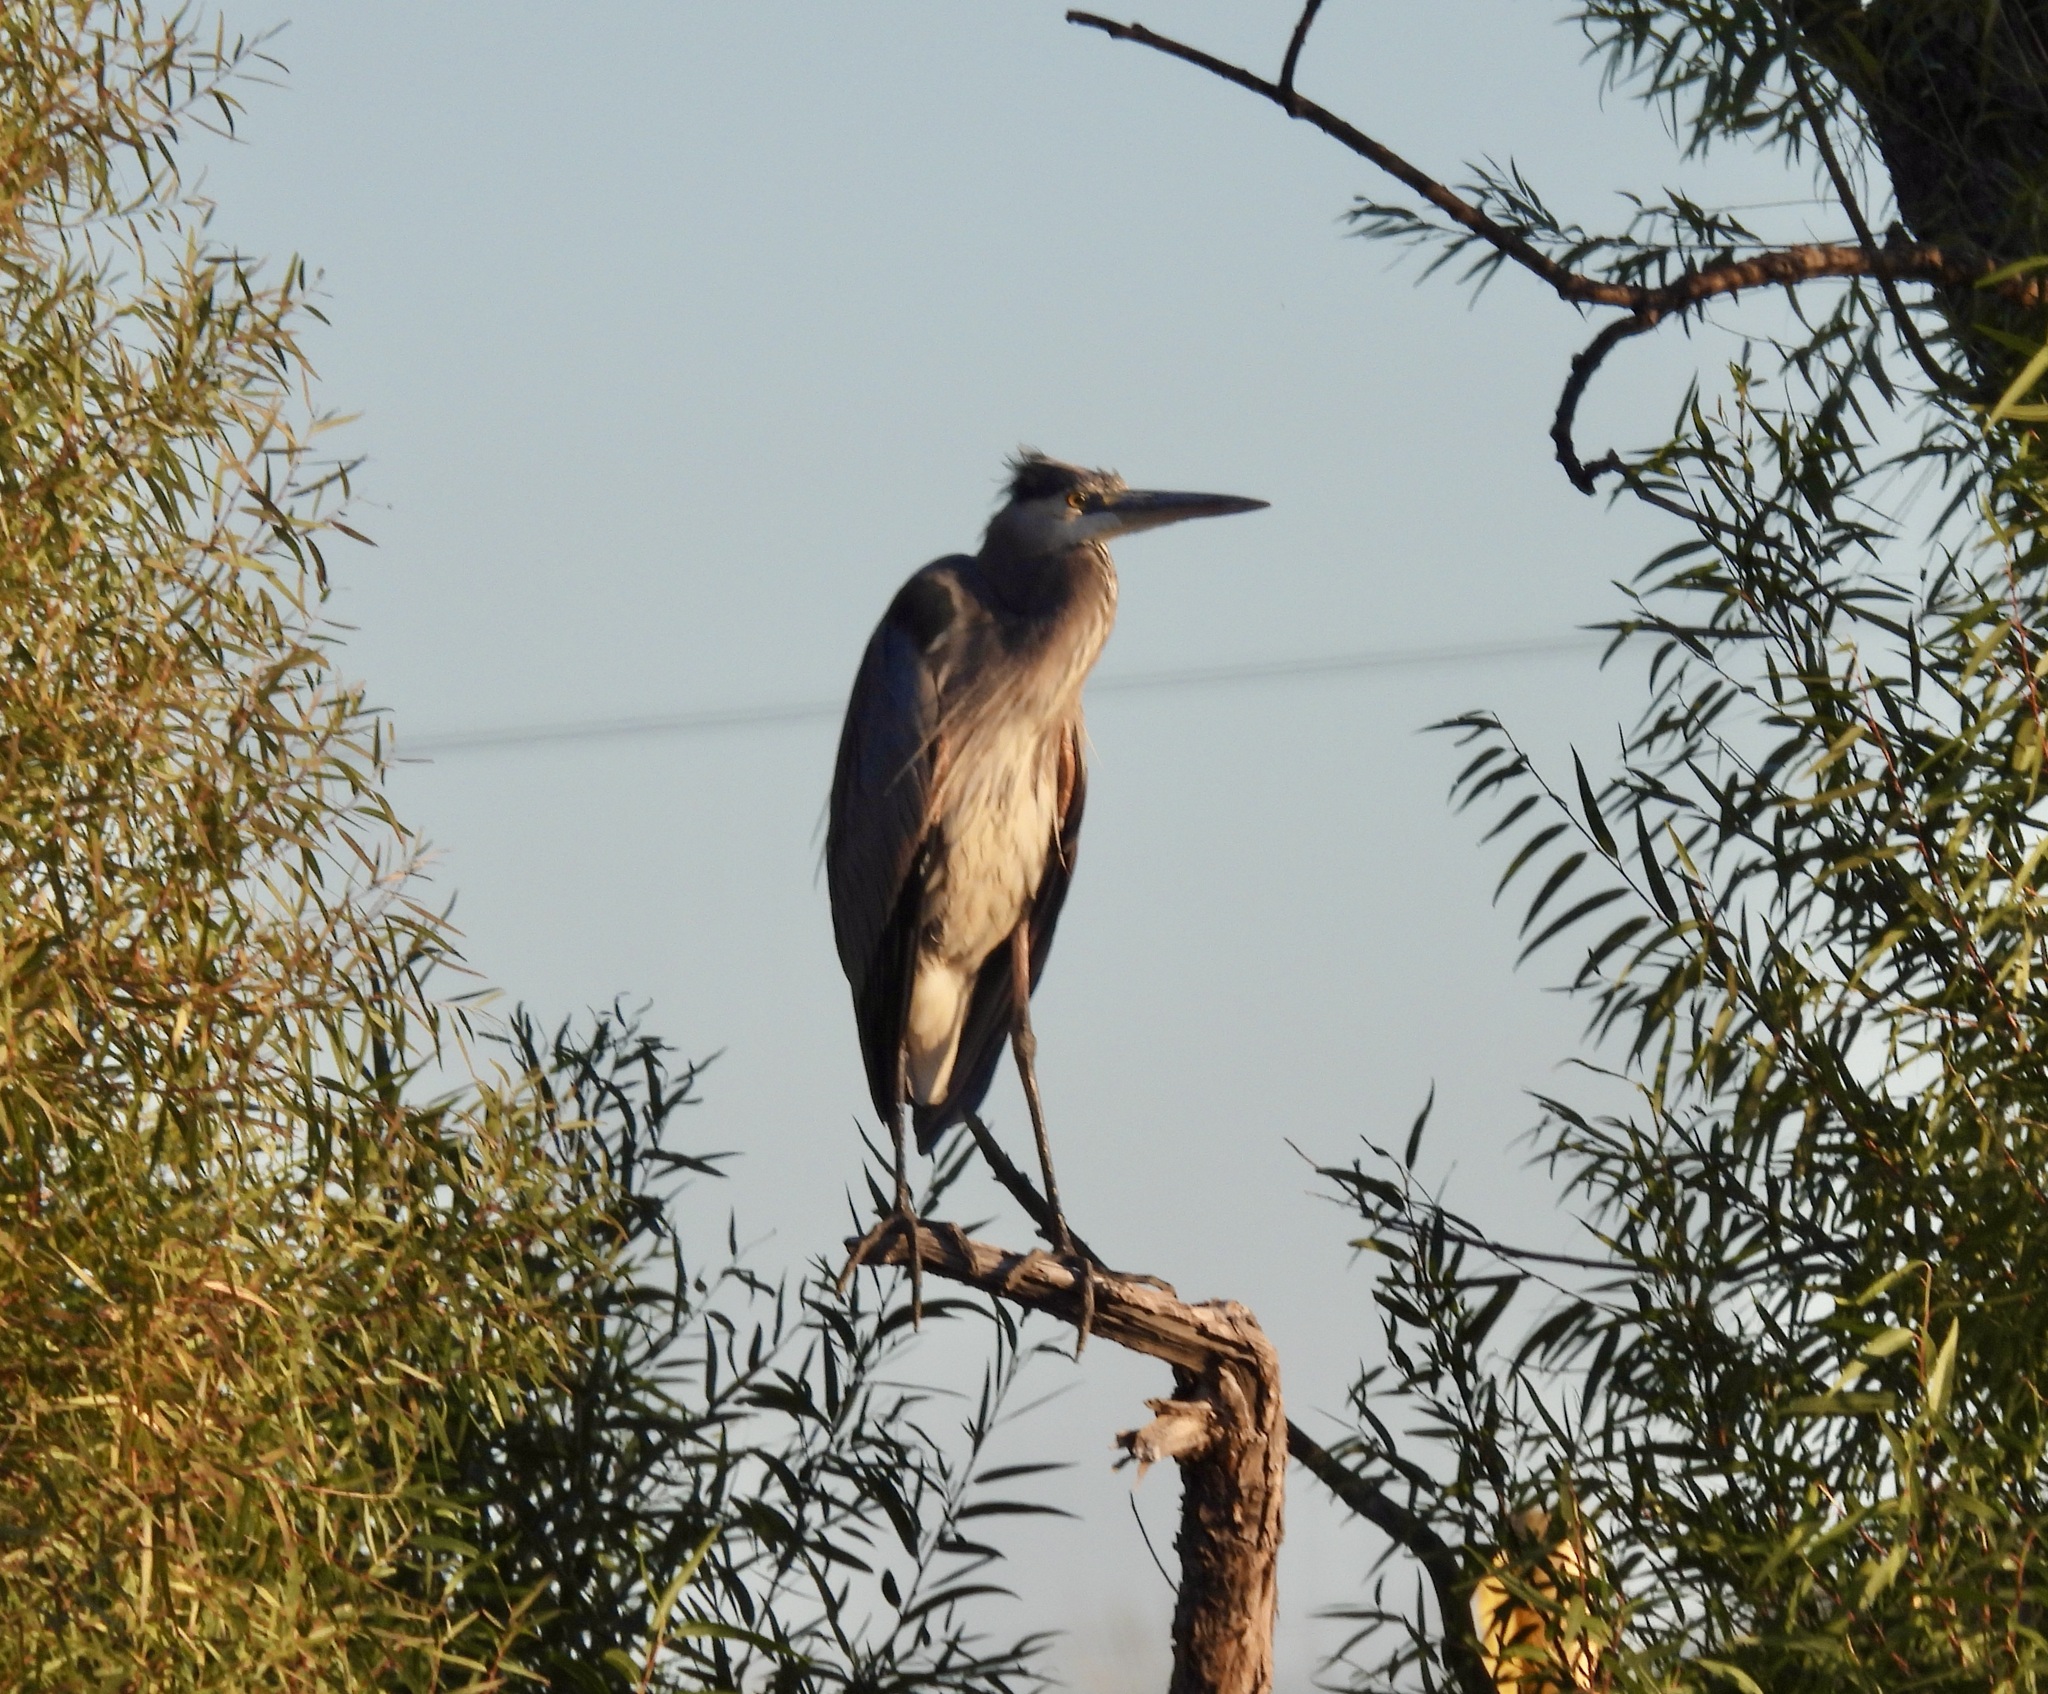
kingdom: Animalia
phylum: Chordata
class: Aves
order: Pelecaniformes
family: Ardeidae
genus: Ardea
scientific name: Ardea herodias
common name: Great blue heron
